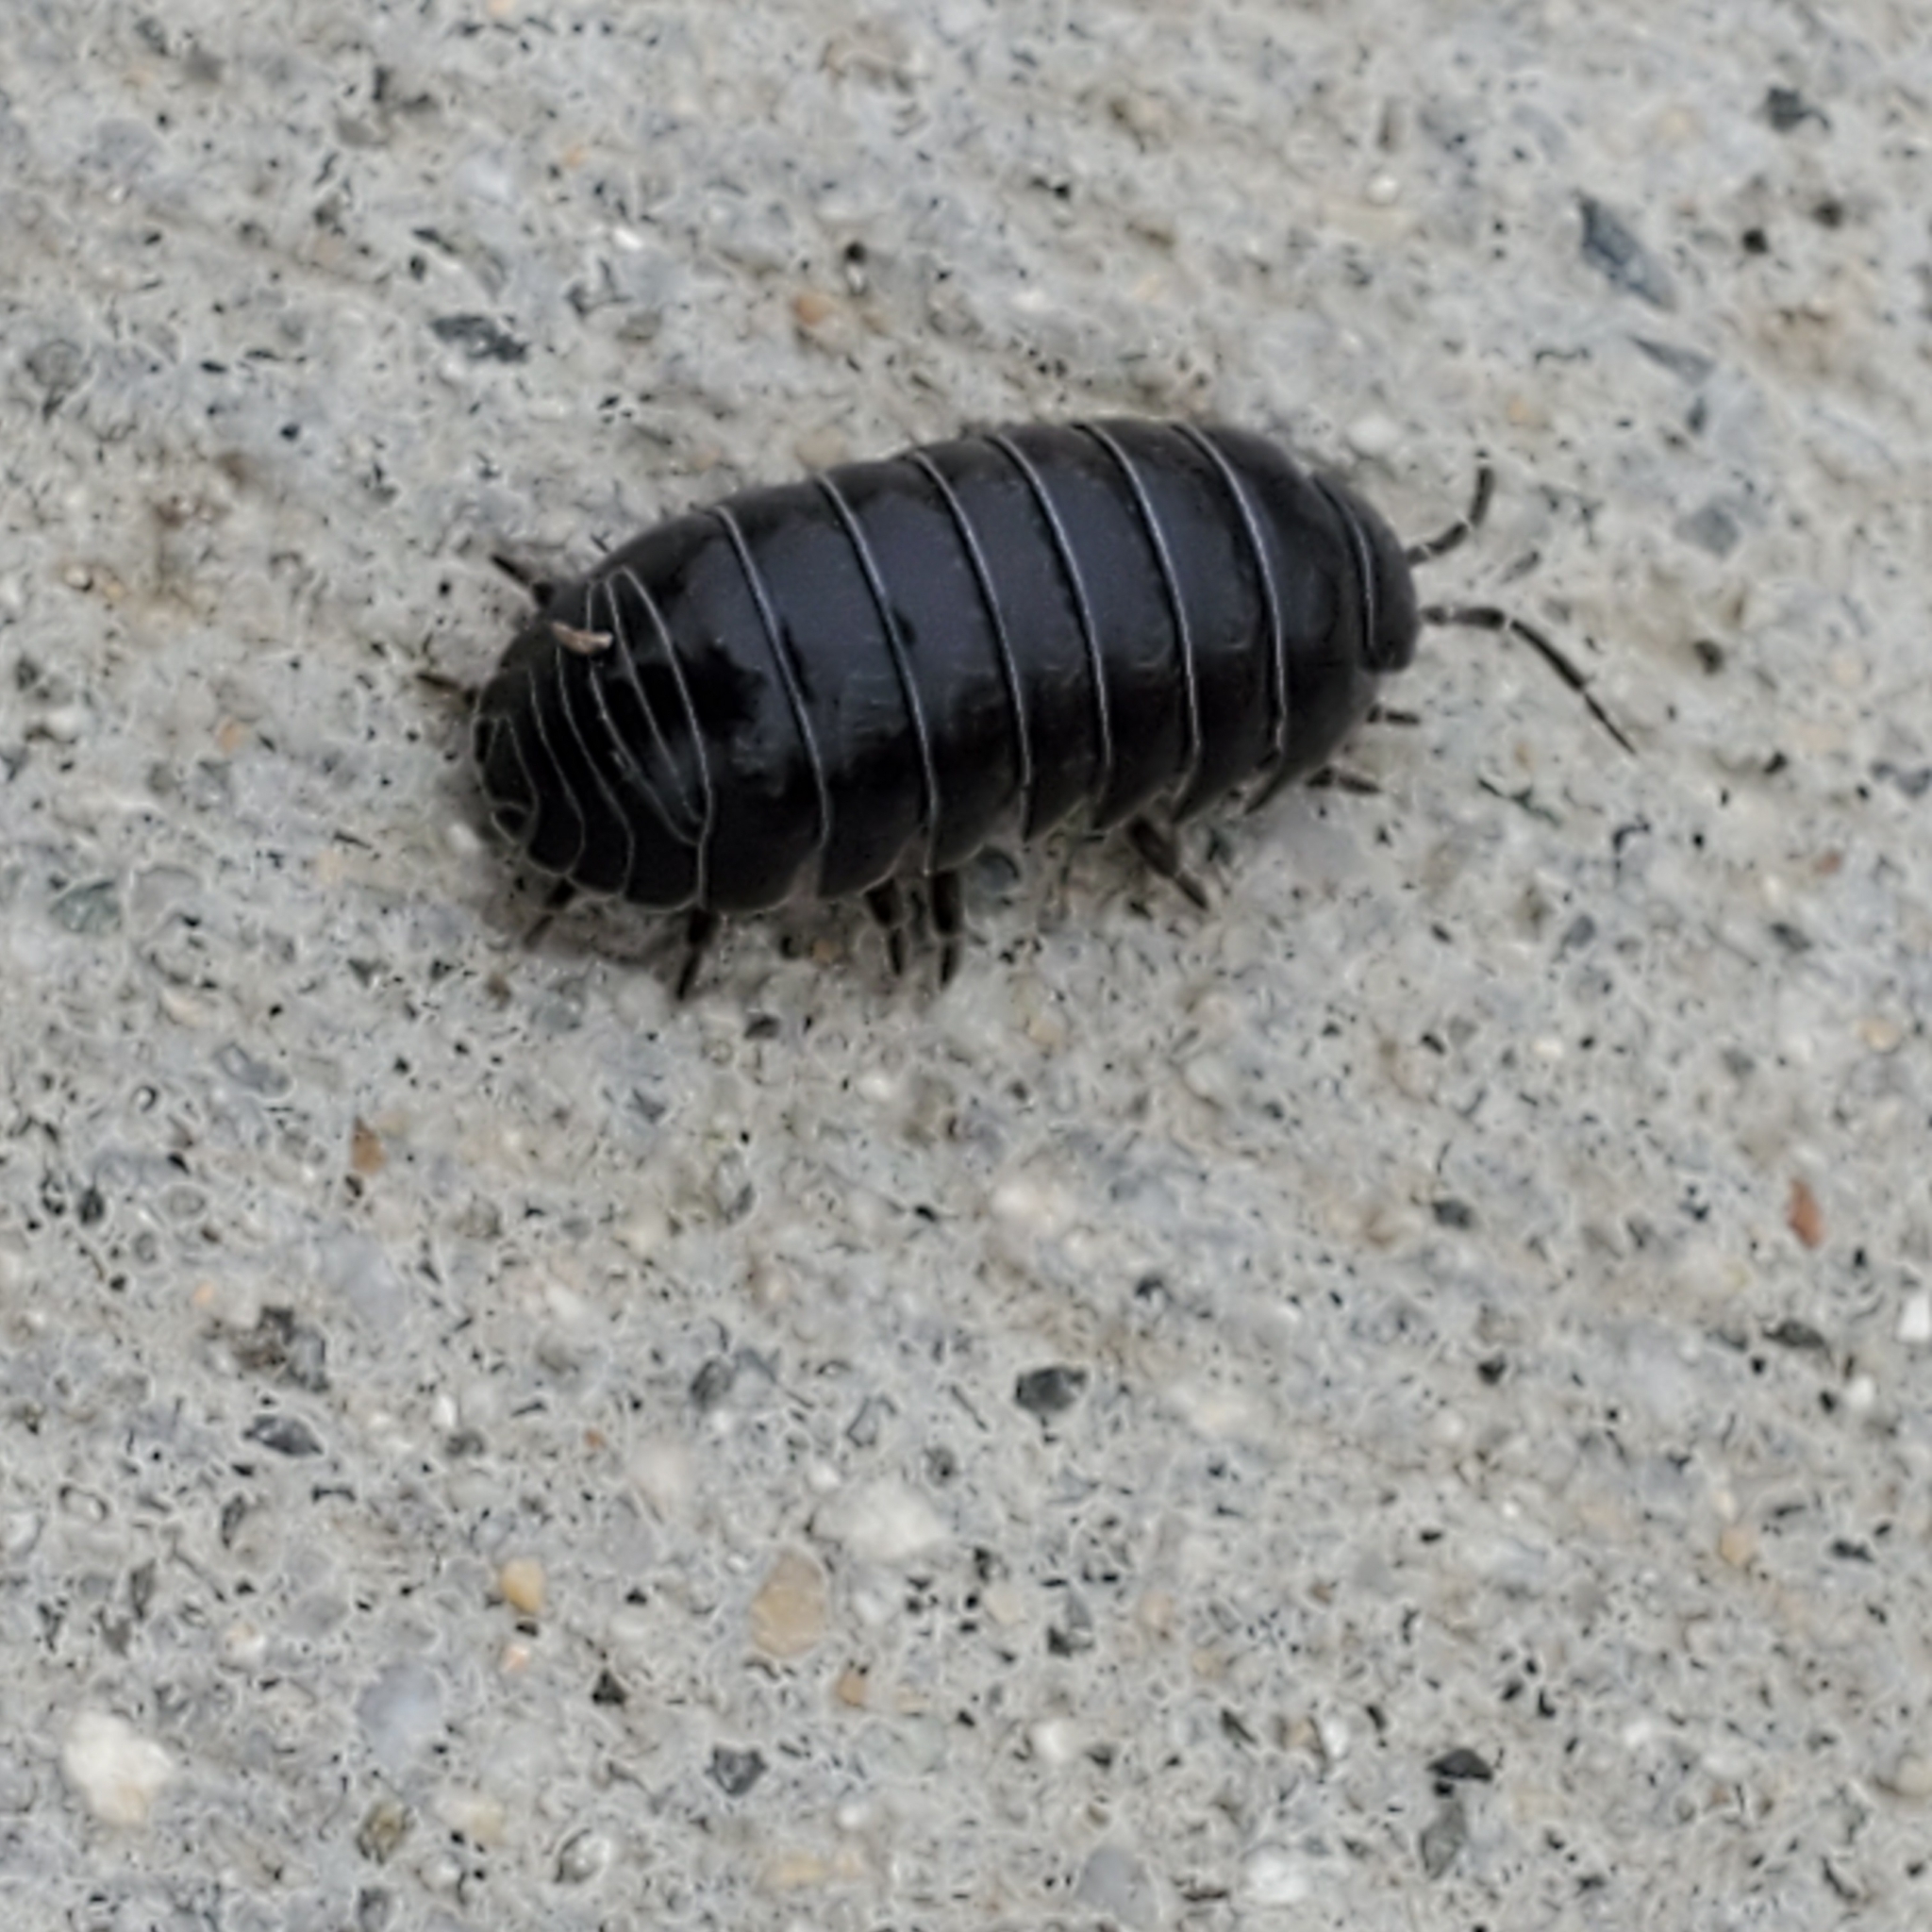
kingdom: Animalia
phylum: Arthropoda
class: Malacostraca
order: Isopoda
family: Armadillidiidae
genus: Armadillidium
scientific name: Armadillidium vulgare
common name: Common pill woodlouse
